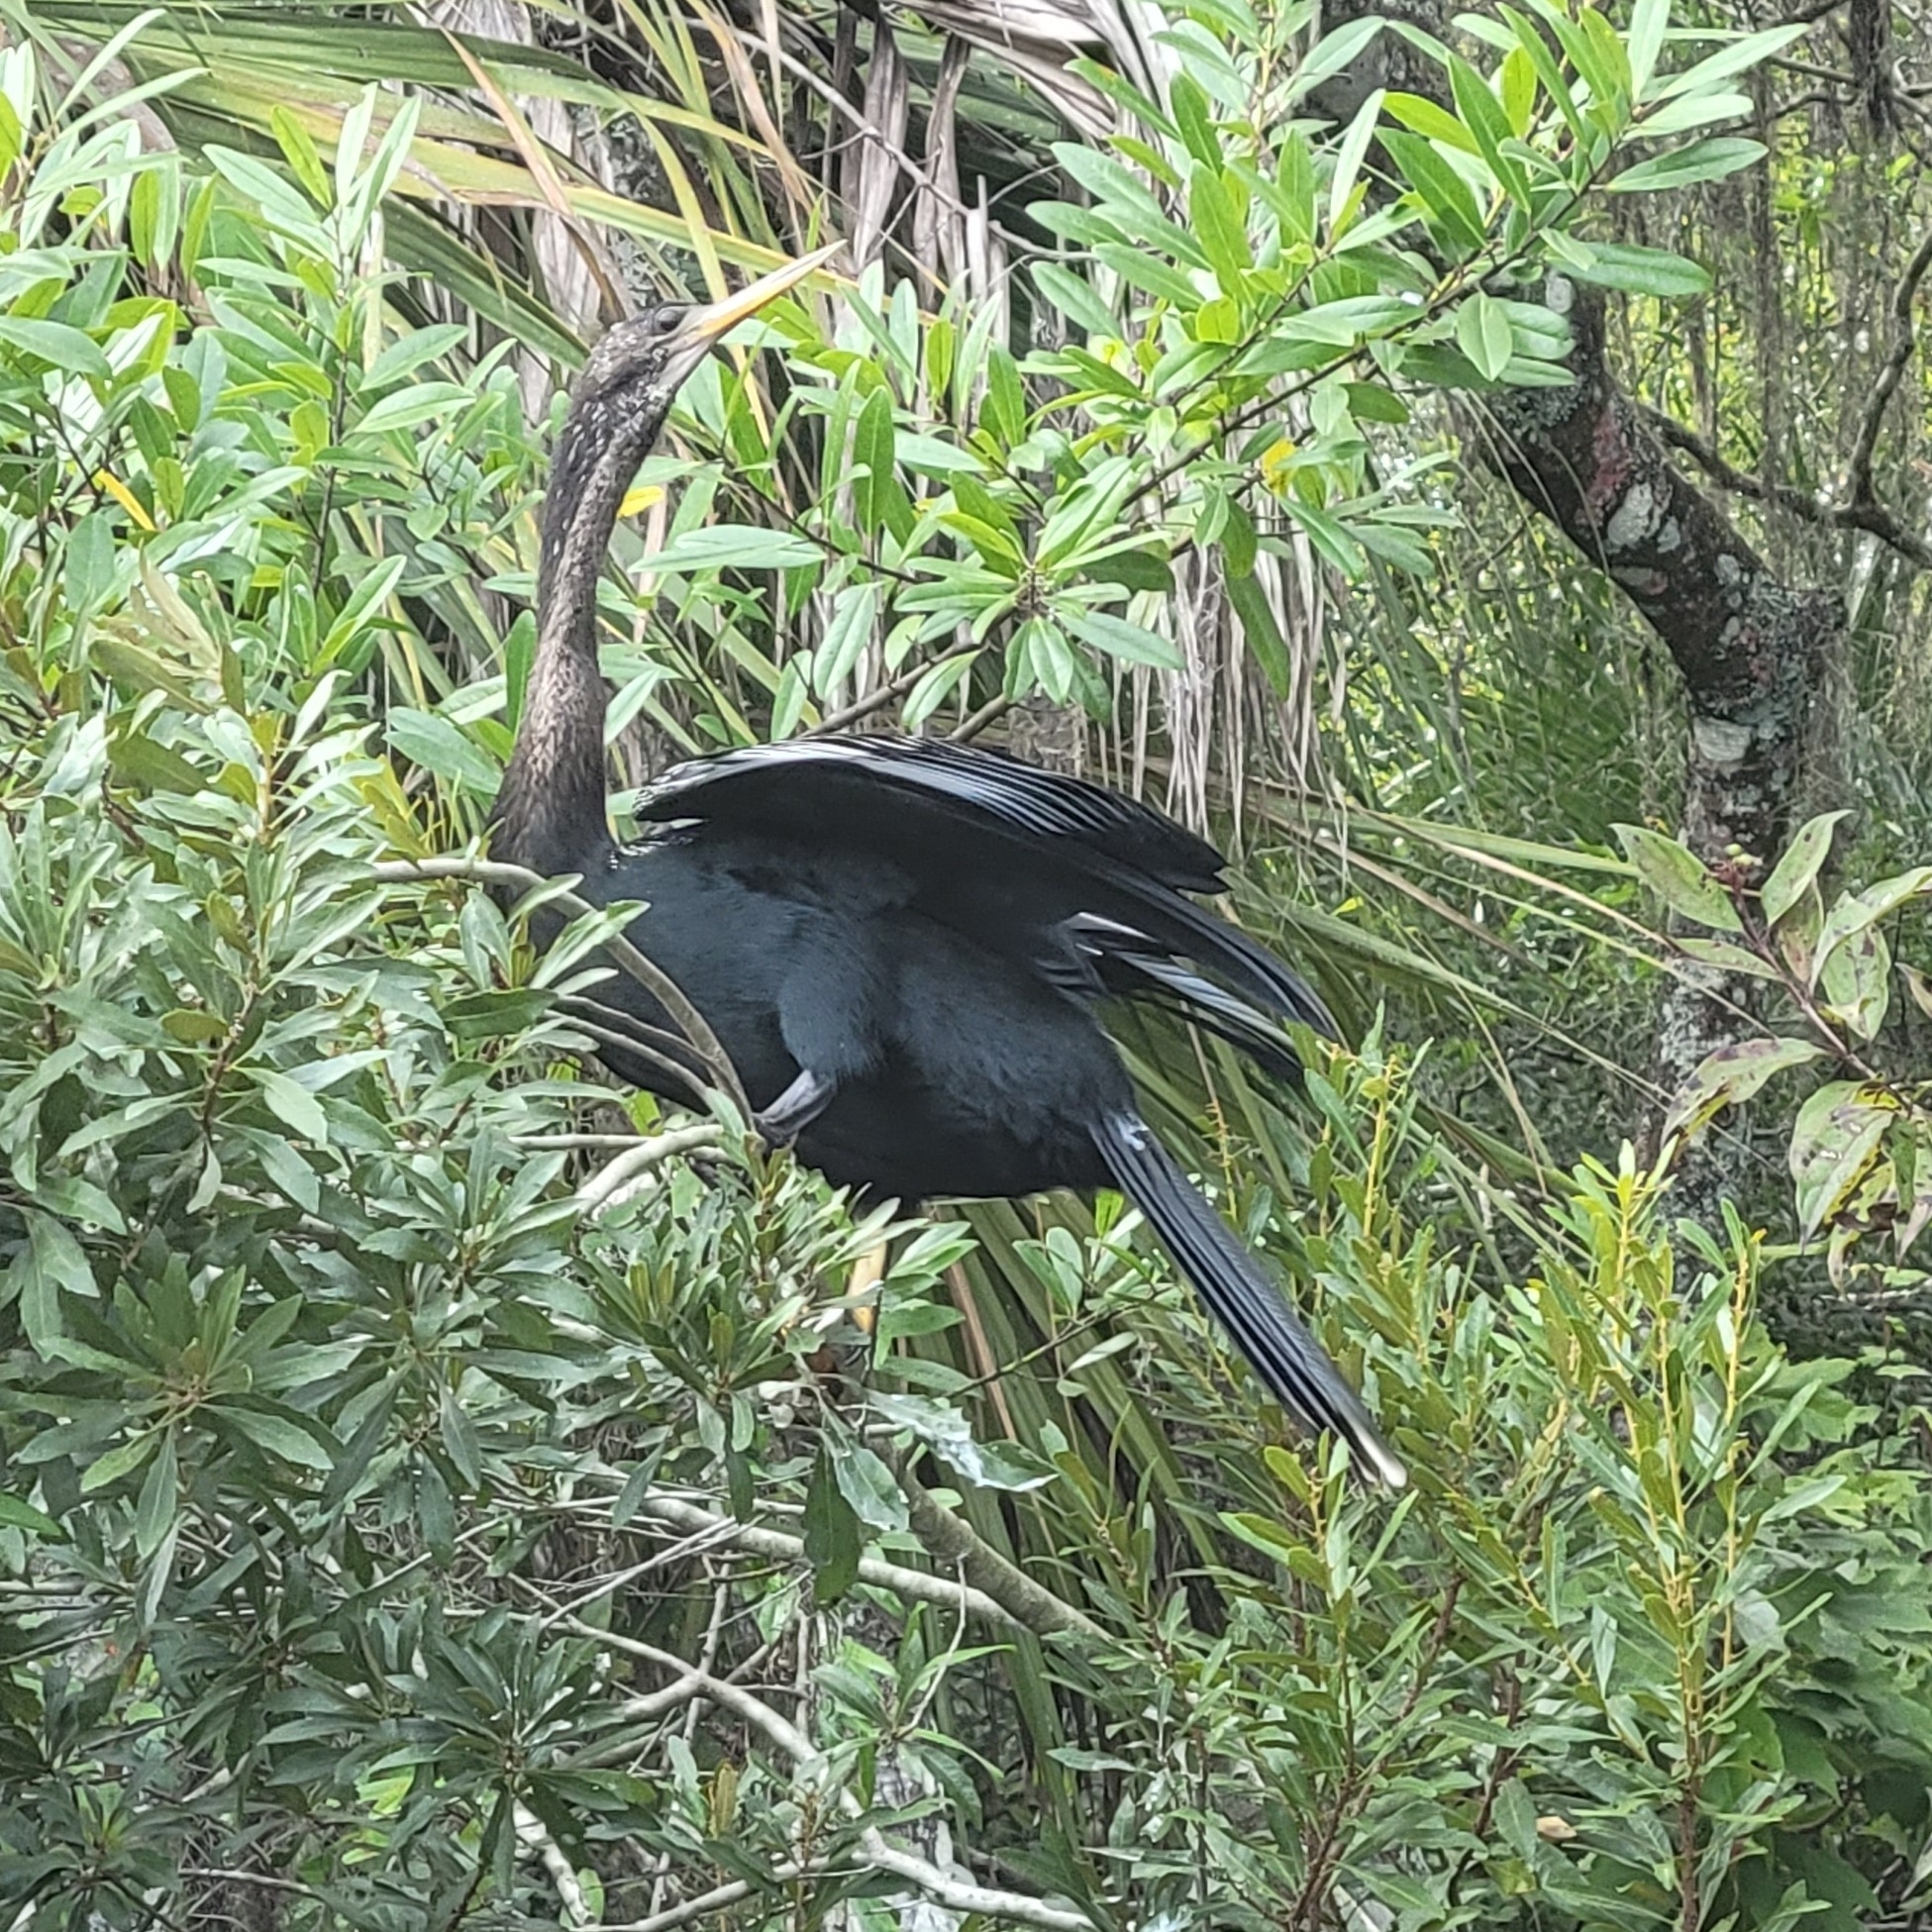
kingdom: Animalia
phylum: Chordata
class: Aves
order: Suliformes
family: Anhingidae
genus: Anhinga
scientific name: Anhinga anhinga
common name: Anhinga
